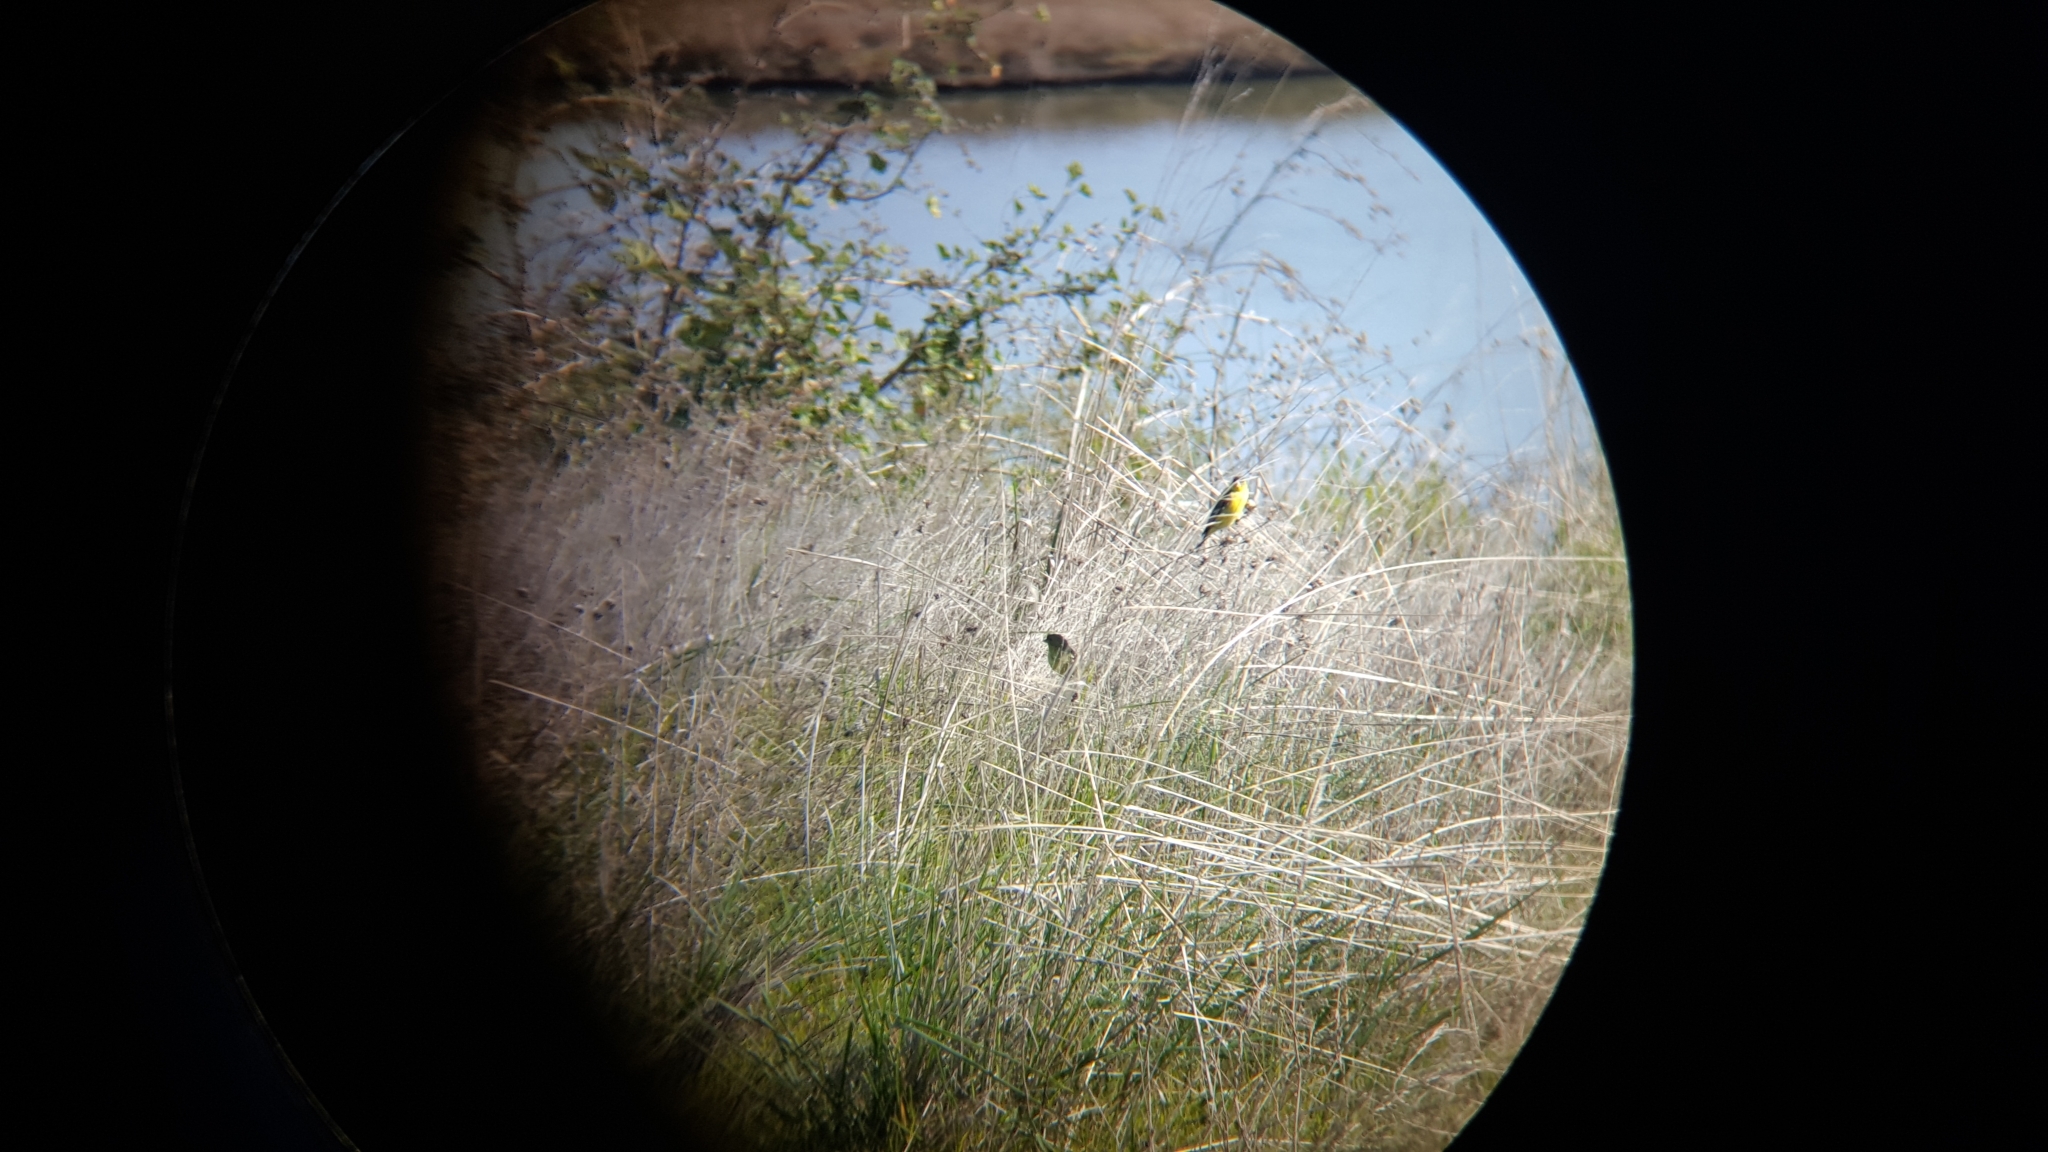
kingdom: Animalia
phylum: Chordata
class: Aves
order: Passeriformes
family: Fringillidae
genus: Spinus
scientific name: Spinus psaltria
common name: Lesser goldfinch
